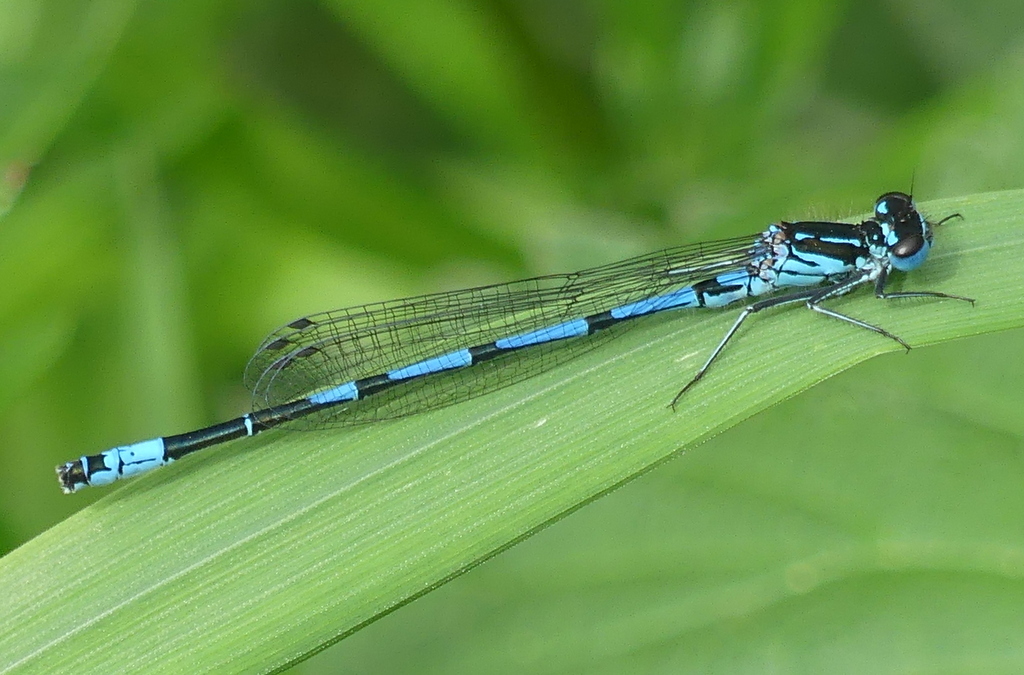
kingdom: Animalia
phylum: Arthropoda
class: Insecta
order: Odonata
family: Coenagrionidae
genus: Coenagrion
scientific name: Coenagrion pulchellum
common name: Variable bluet
